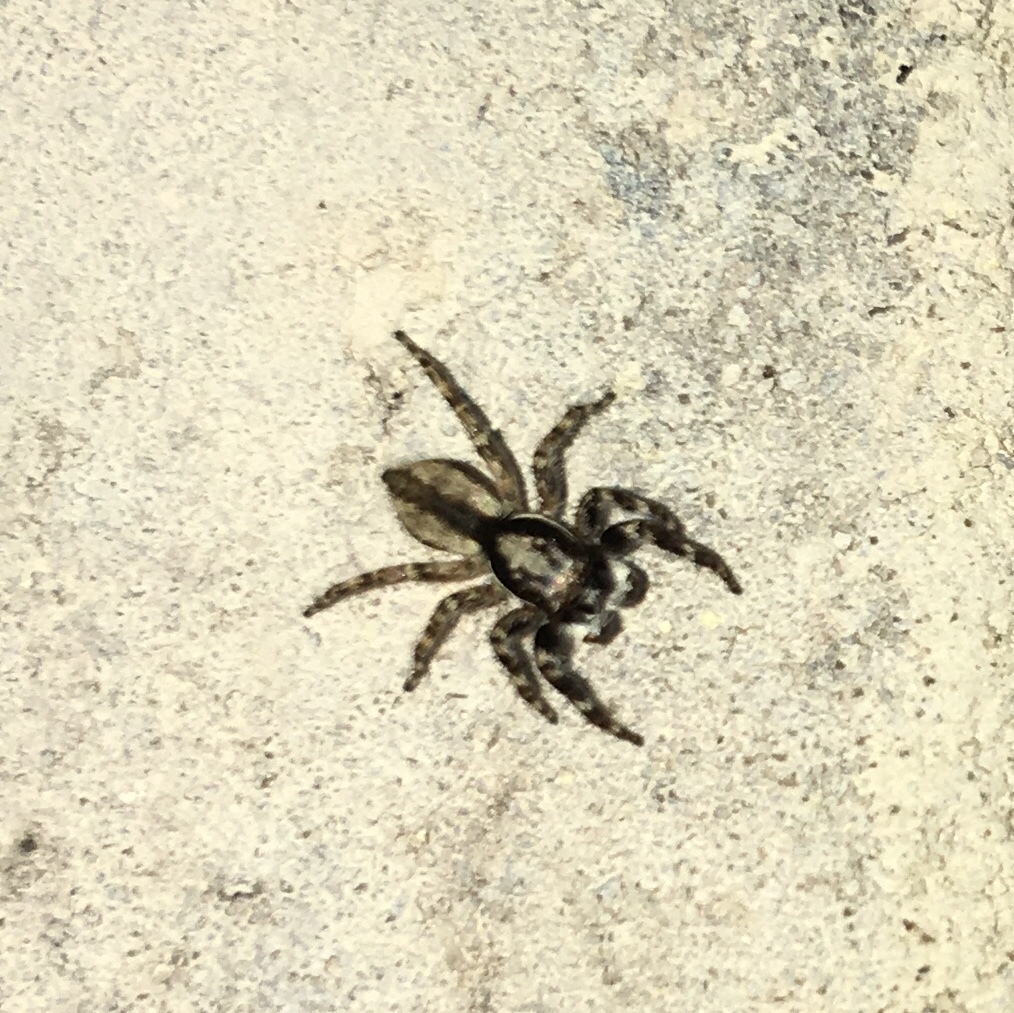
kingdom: Animalia
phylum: Arthropoda
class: Arachnida
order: Araneae
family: Salticidae
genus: Menemerus
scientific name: Menemerus bivittatus
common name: Gray wall jumper
